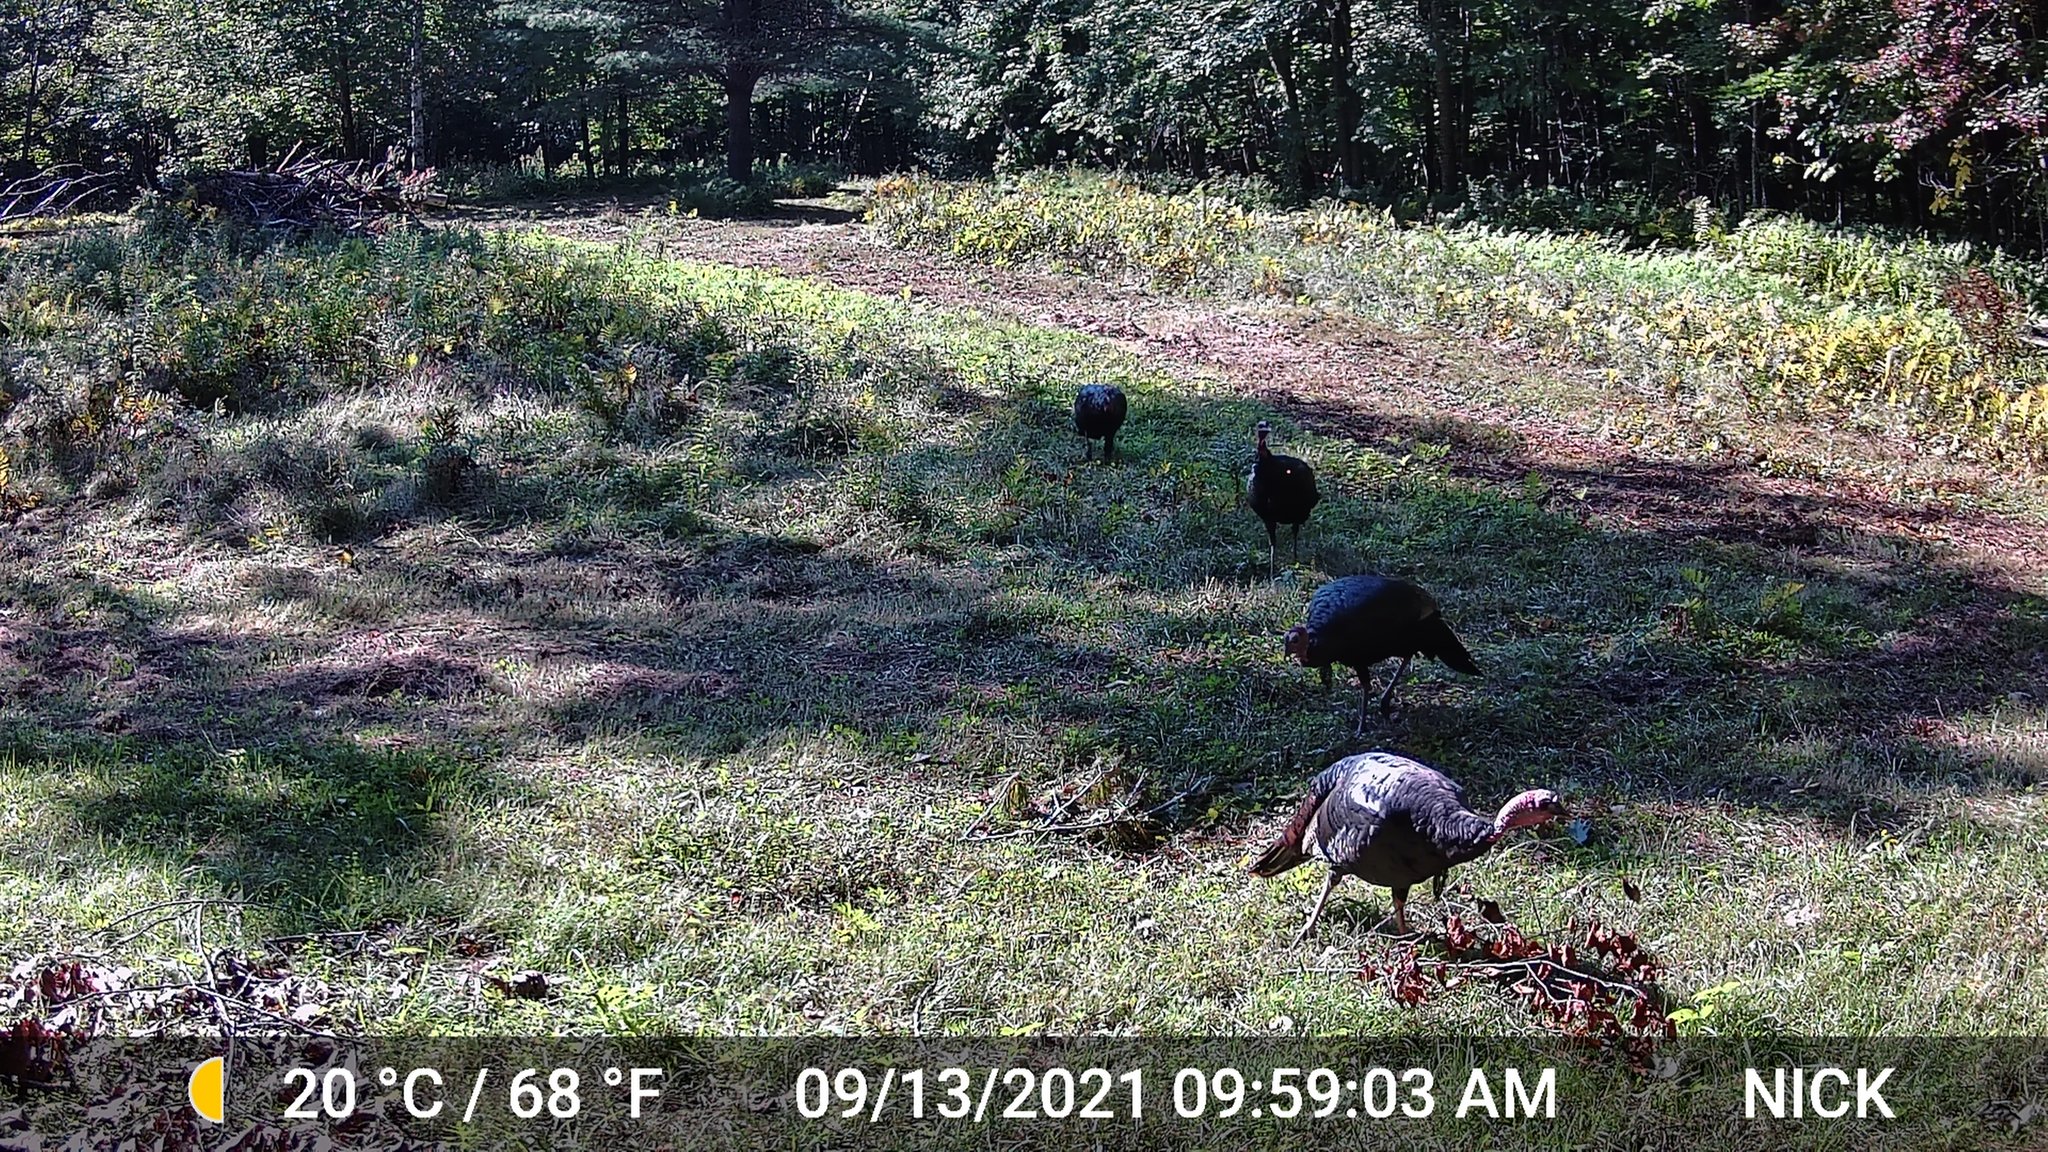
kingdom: Animalia
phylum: Chordata
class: Aves
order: Galliformes
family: Phasianidae
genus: Meleagris
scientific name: Meleagris gallopavo
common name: Wild turkey
